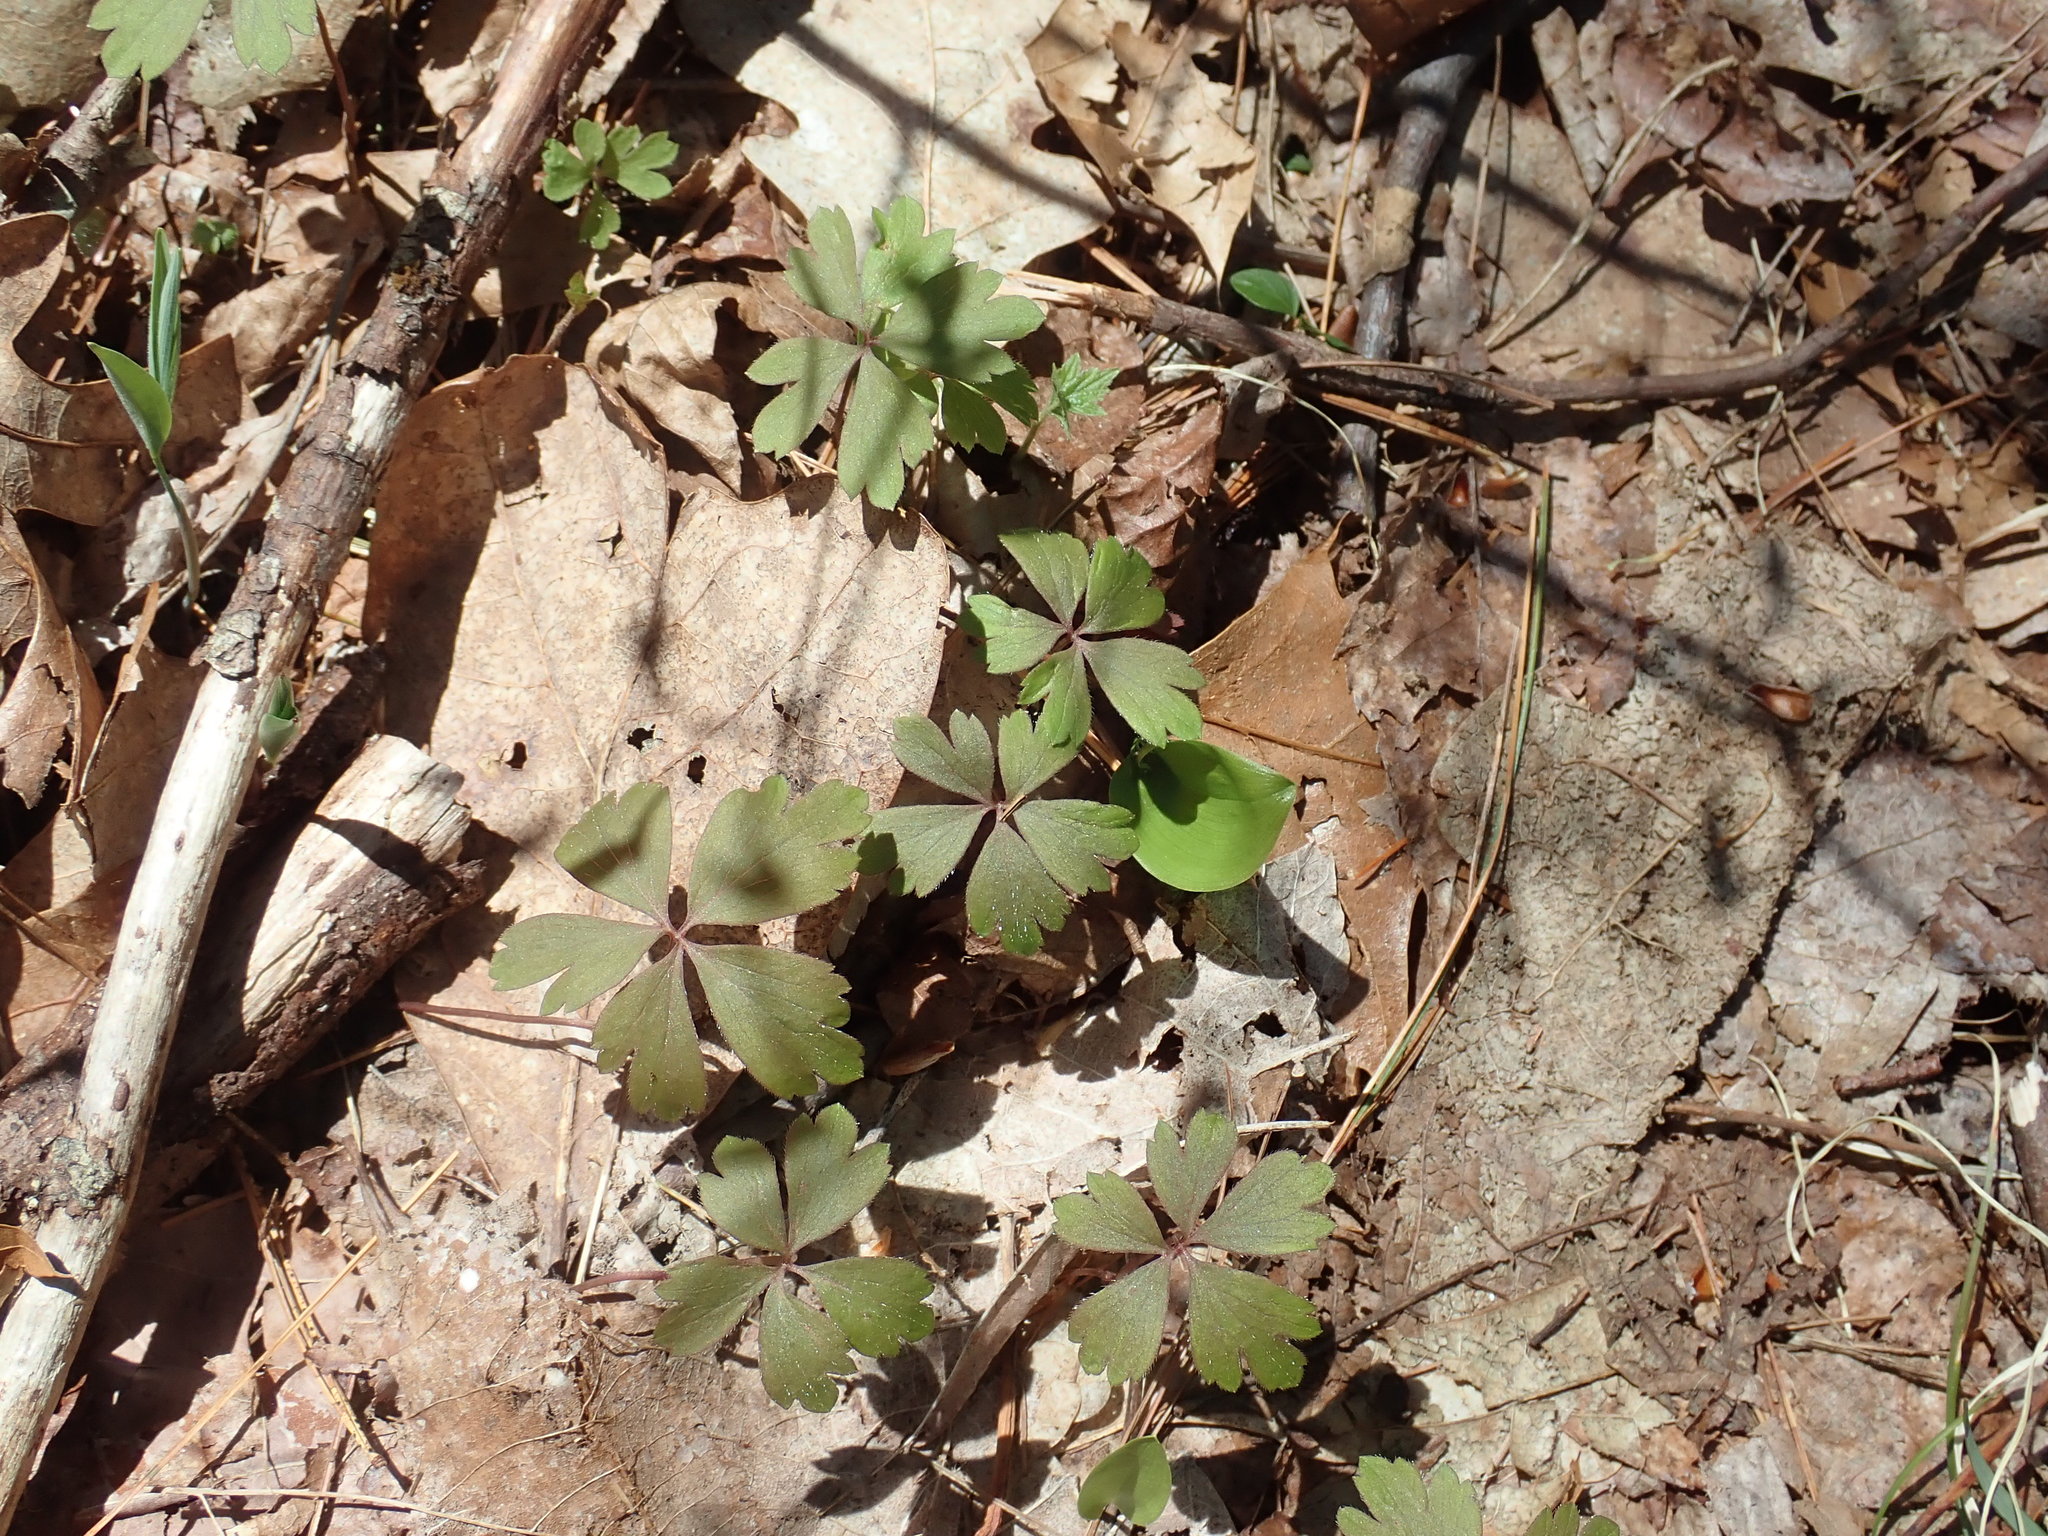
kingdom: Plantae
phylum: Tracheophyta
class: Magnoliopsida
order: Ranunculales
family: Ranunculaceae
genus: Anemone
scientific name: Anemone quinquefolia
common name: Wood anemone
